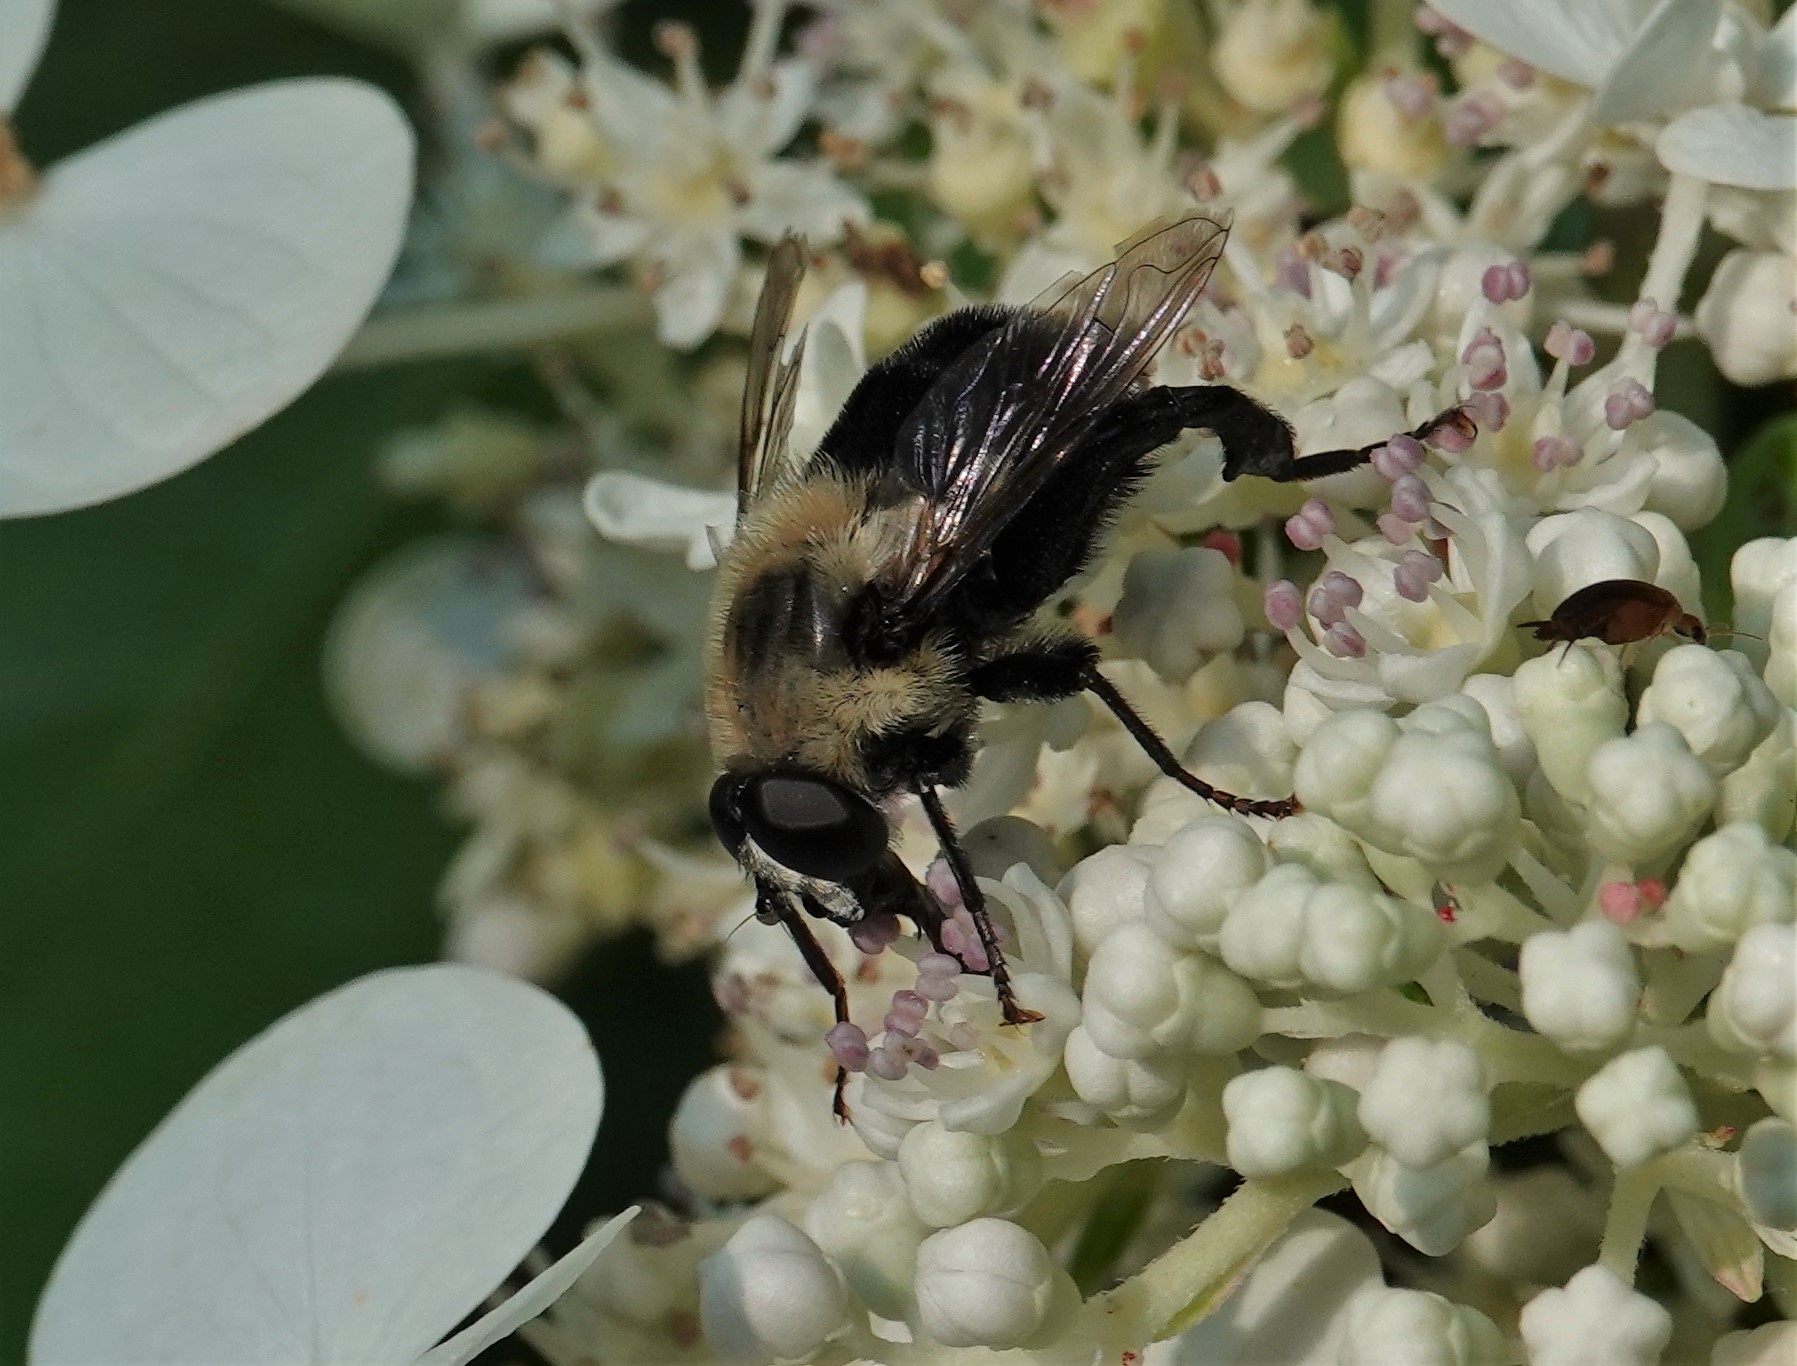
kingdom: Animalia
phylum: Arthropoda
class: Insecta
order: Diptera
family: Syrphidae
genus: Imatisma
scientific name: Imatisma bautias
